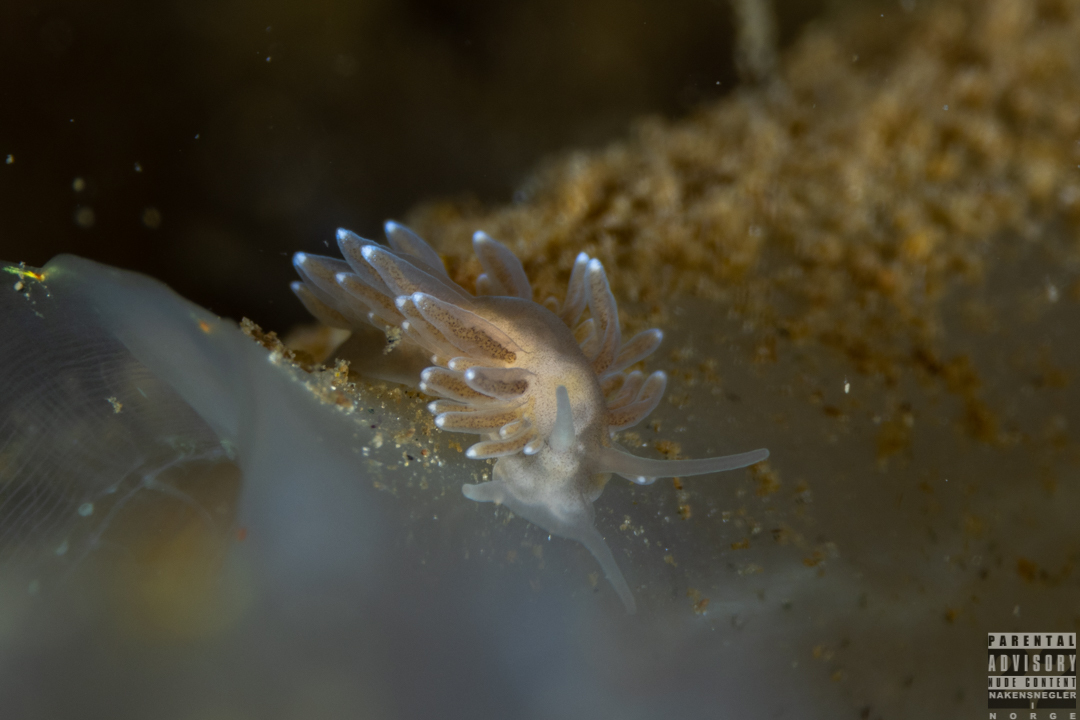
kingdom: Animalia
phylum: Mollusca
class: Gastropoda
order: Nudibranchia
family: Cuthonidae
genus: Bohuslania
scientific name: Bohuslania matsmichaeli
